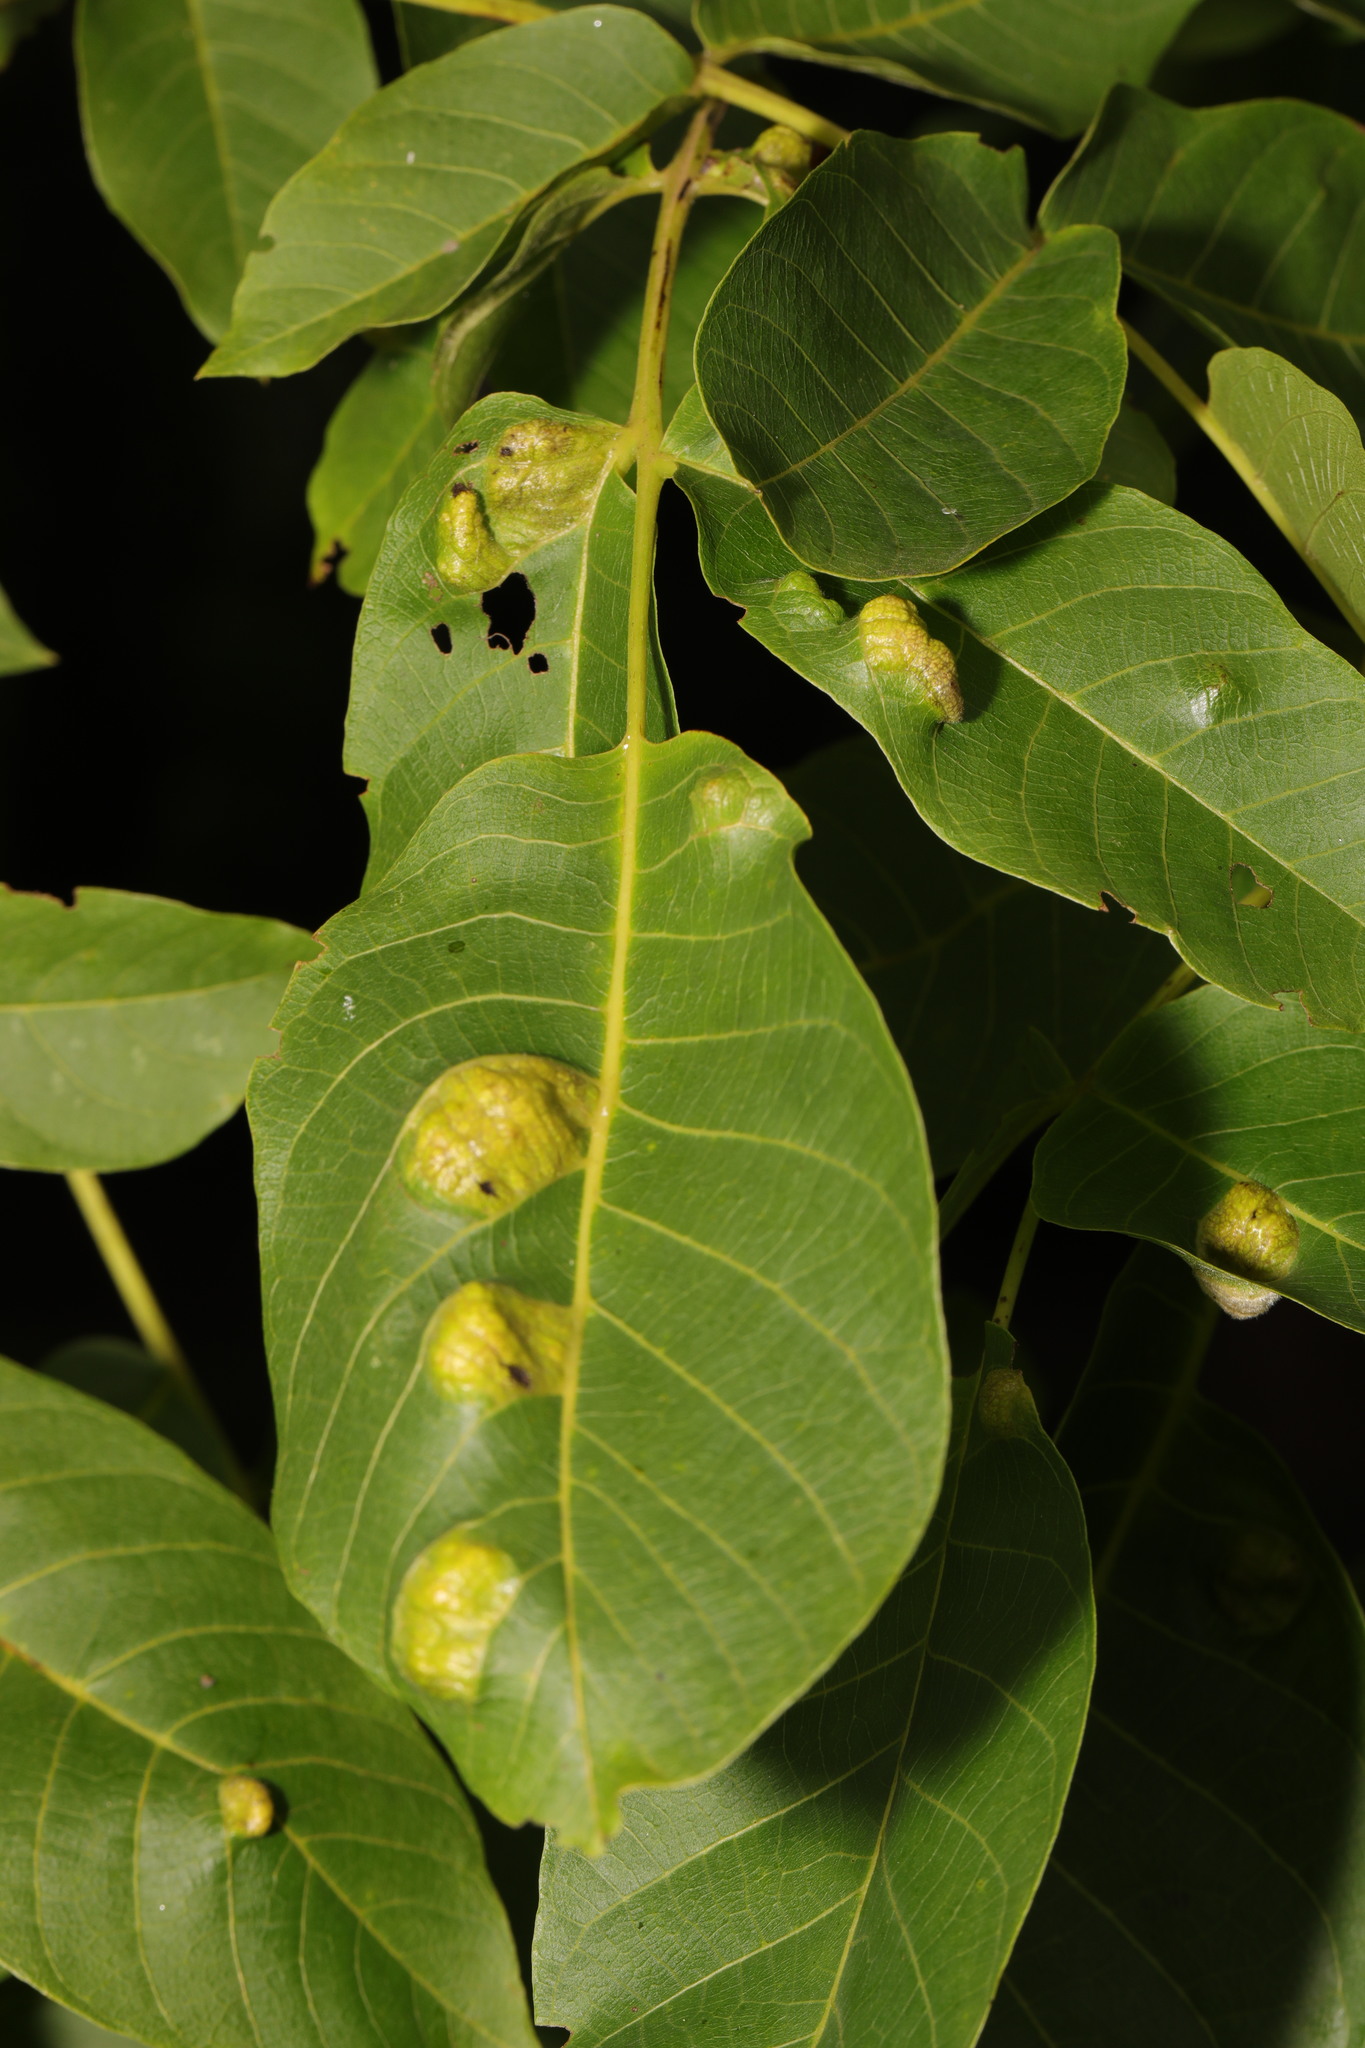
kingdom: Animalia
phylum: Arthropoda
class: Arachnida
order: Trombidiformes
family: Eriophyidae
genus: Aceria
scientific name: Aceria erinea
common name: Persian walnut erineum mite
